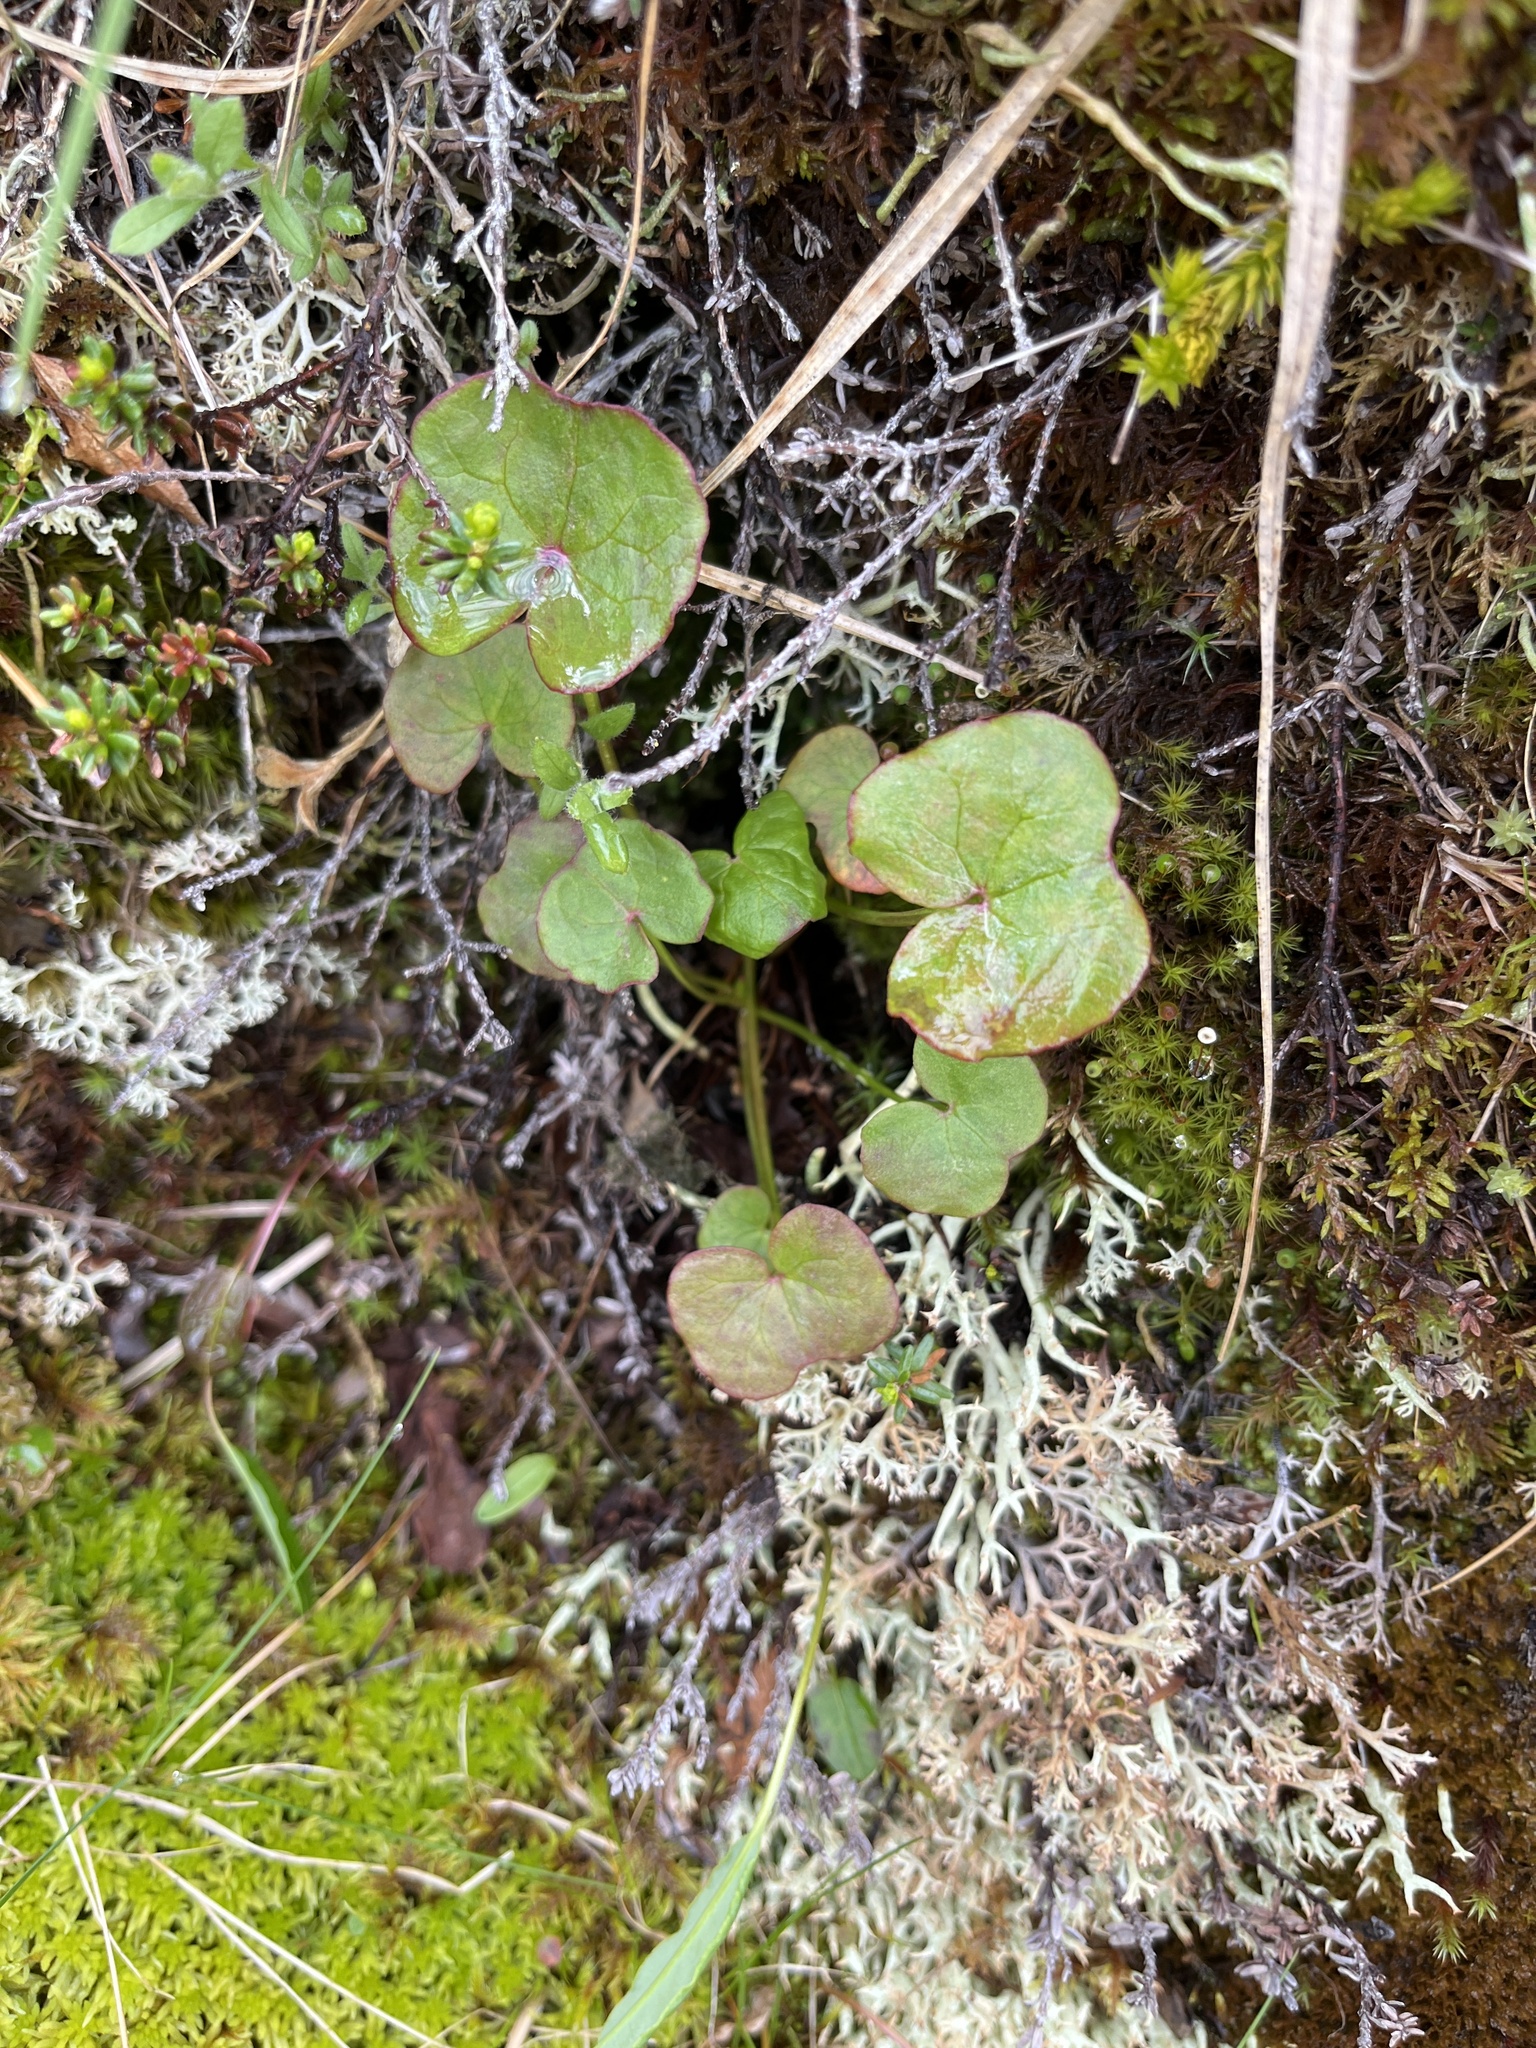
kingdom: Plantae
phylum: Tracheophyta
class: Magnoliopsida
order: Caryophyllales
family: Polygonaceae
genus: Oxyria
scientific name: Oxyria digyna
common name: Alpine mountain-sorrel
